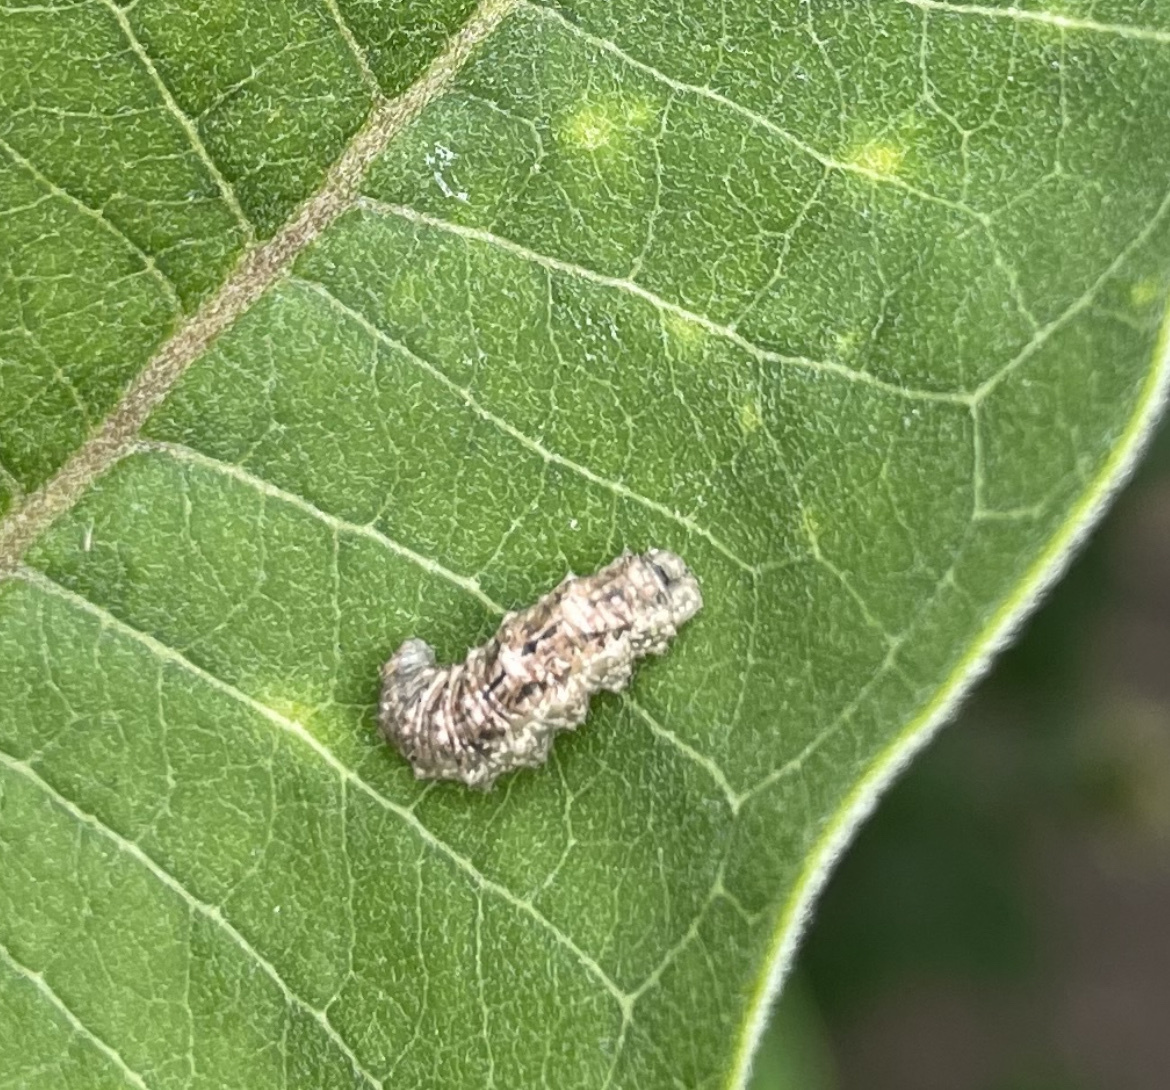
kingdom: Animalia
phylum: Arthropoda
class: Insecta
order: Diptera
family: Syrphidae
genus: Eupeodes
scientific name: Eupeodes americanus
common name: Long-tailed aphideater
